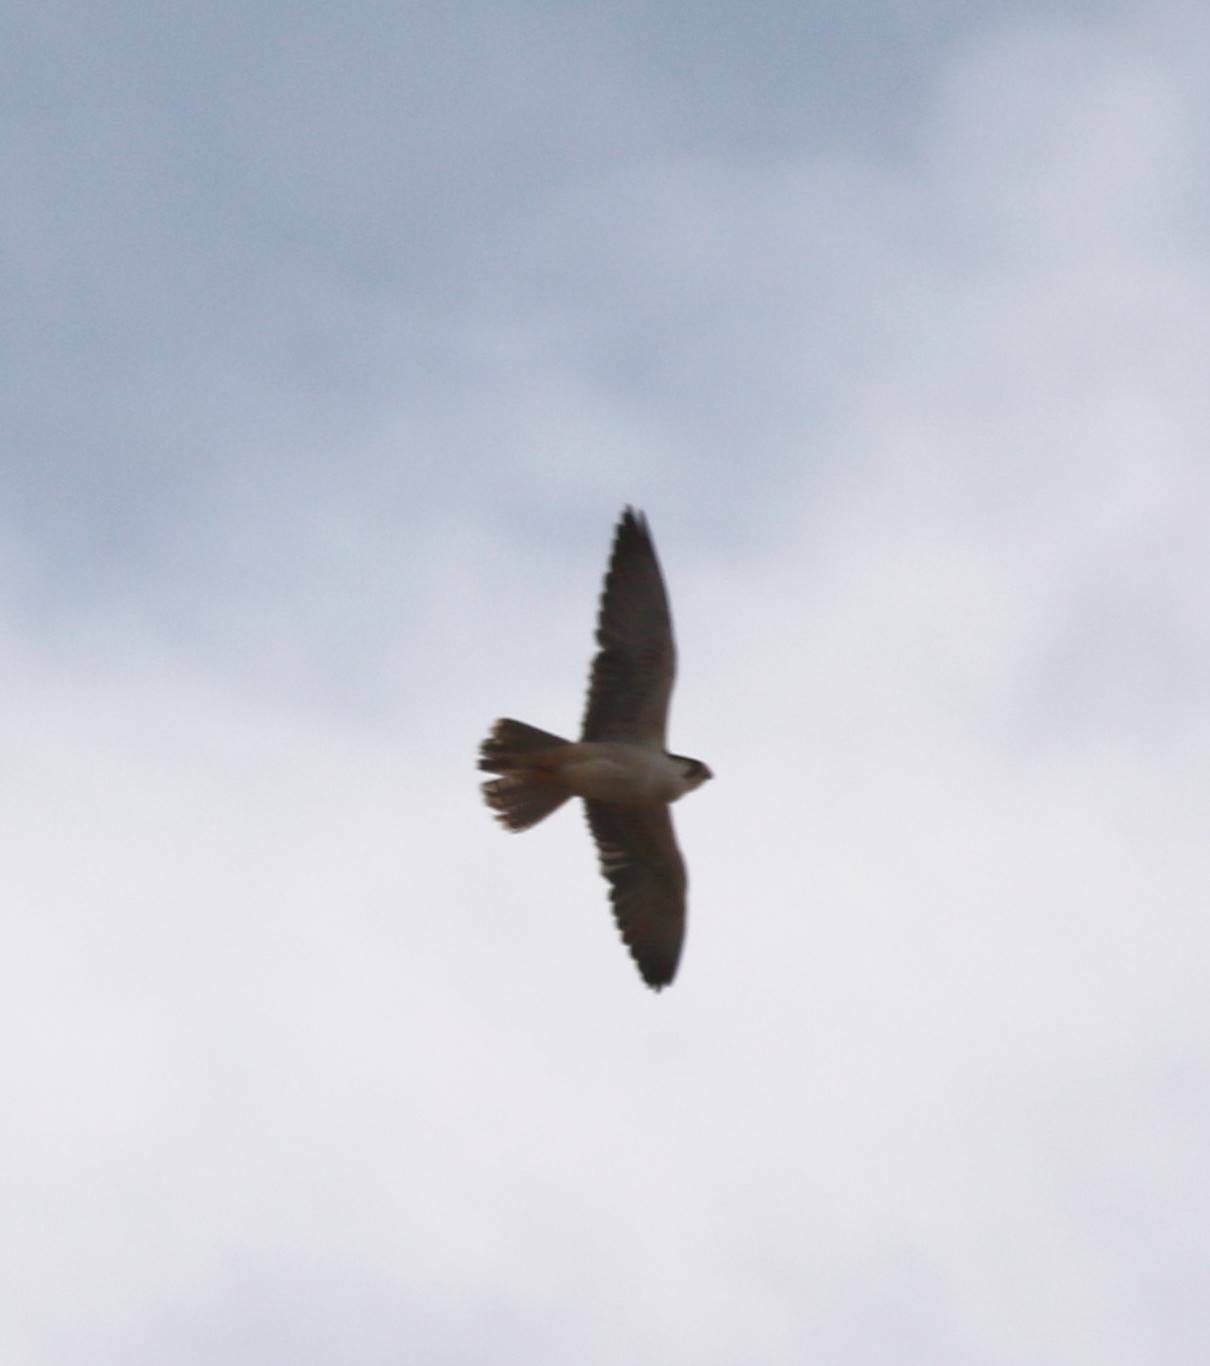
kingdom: Animalia
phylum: Chordata
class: Aves
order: Falconiformes
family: Falconidae
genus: Falco
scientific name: Falco biarmicus
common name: Lanner falcon
